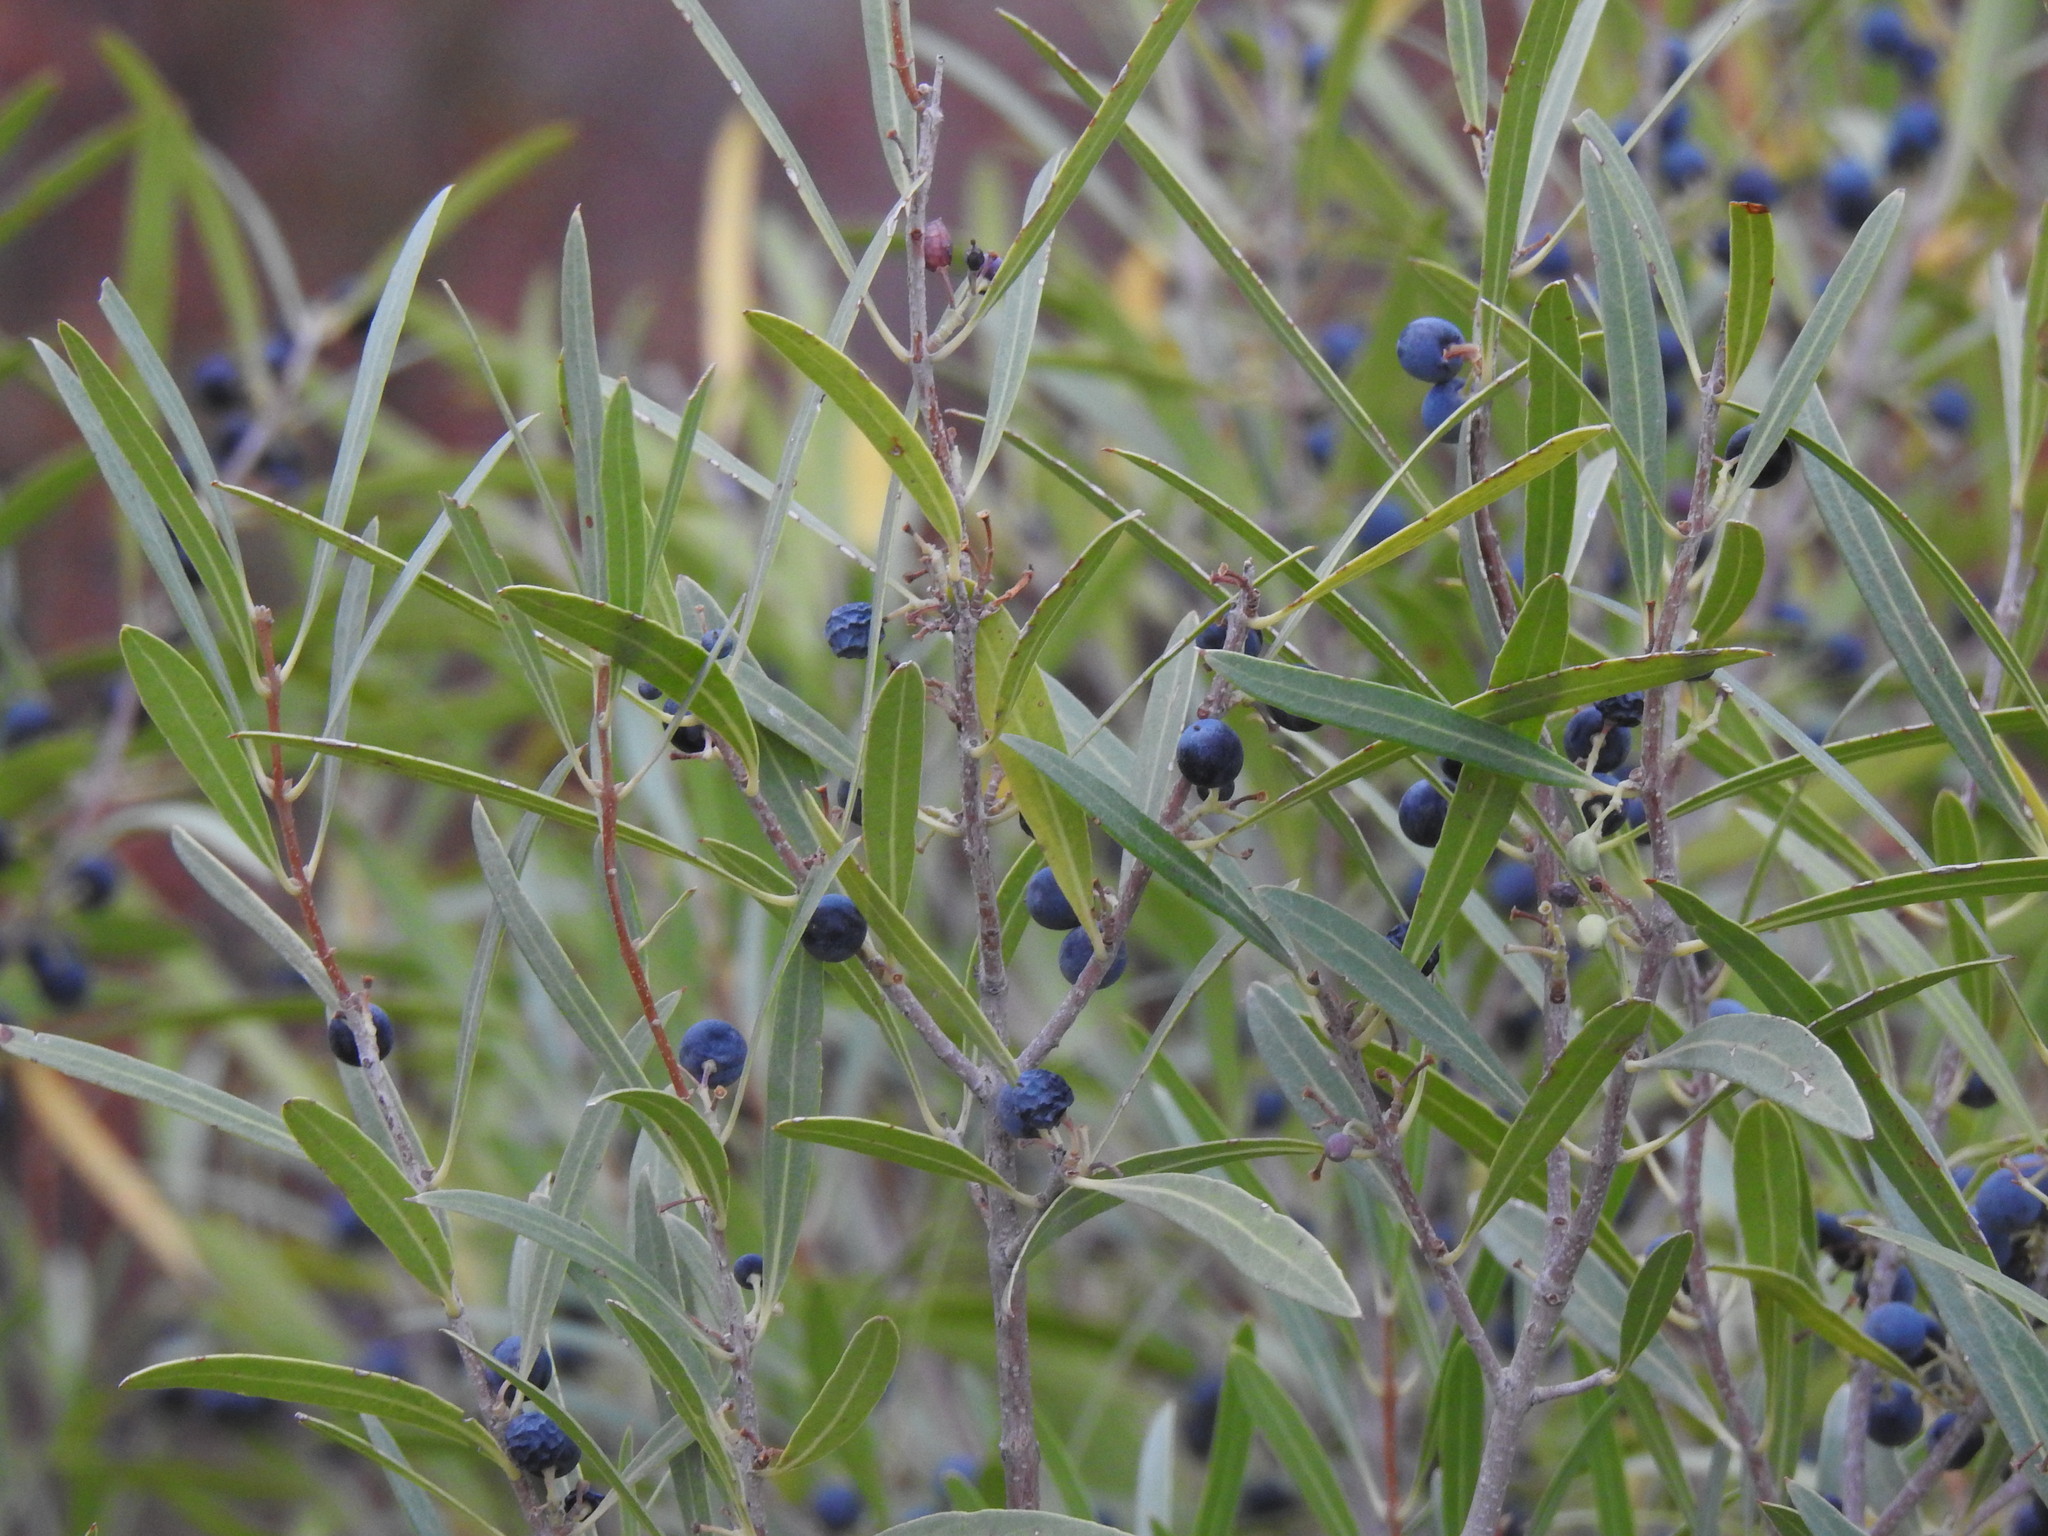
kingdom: Plantae
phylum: Tracheophyta
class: Magnoliopsida
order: Lamiales
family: Oleaceae
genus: Phillyrea
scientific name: Phillyrea angustifolia
